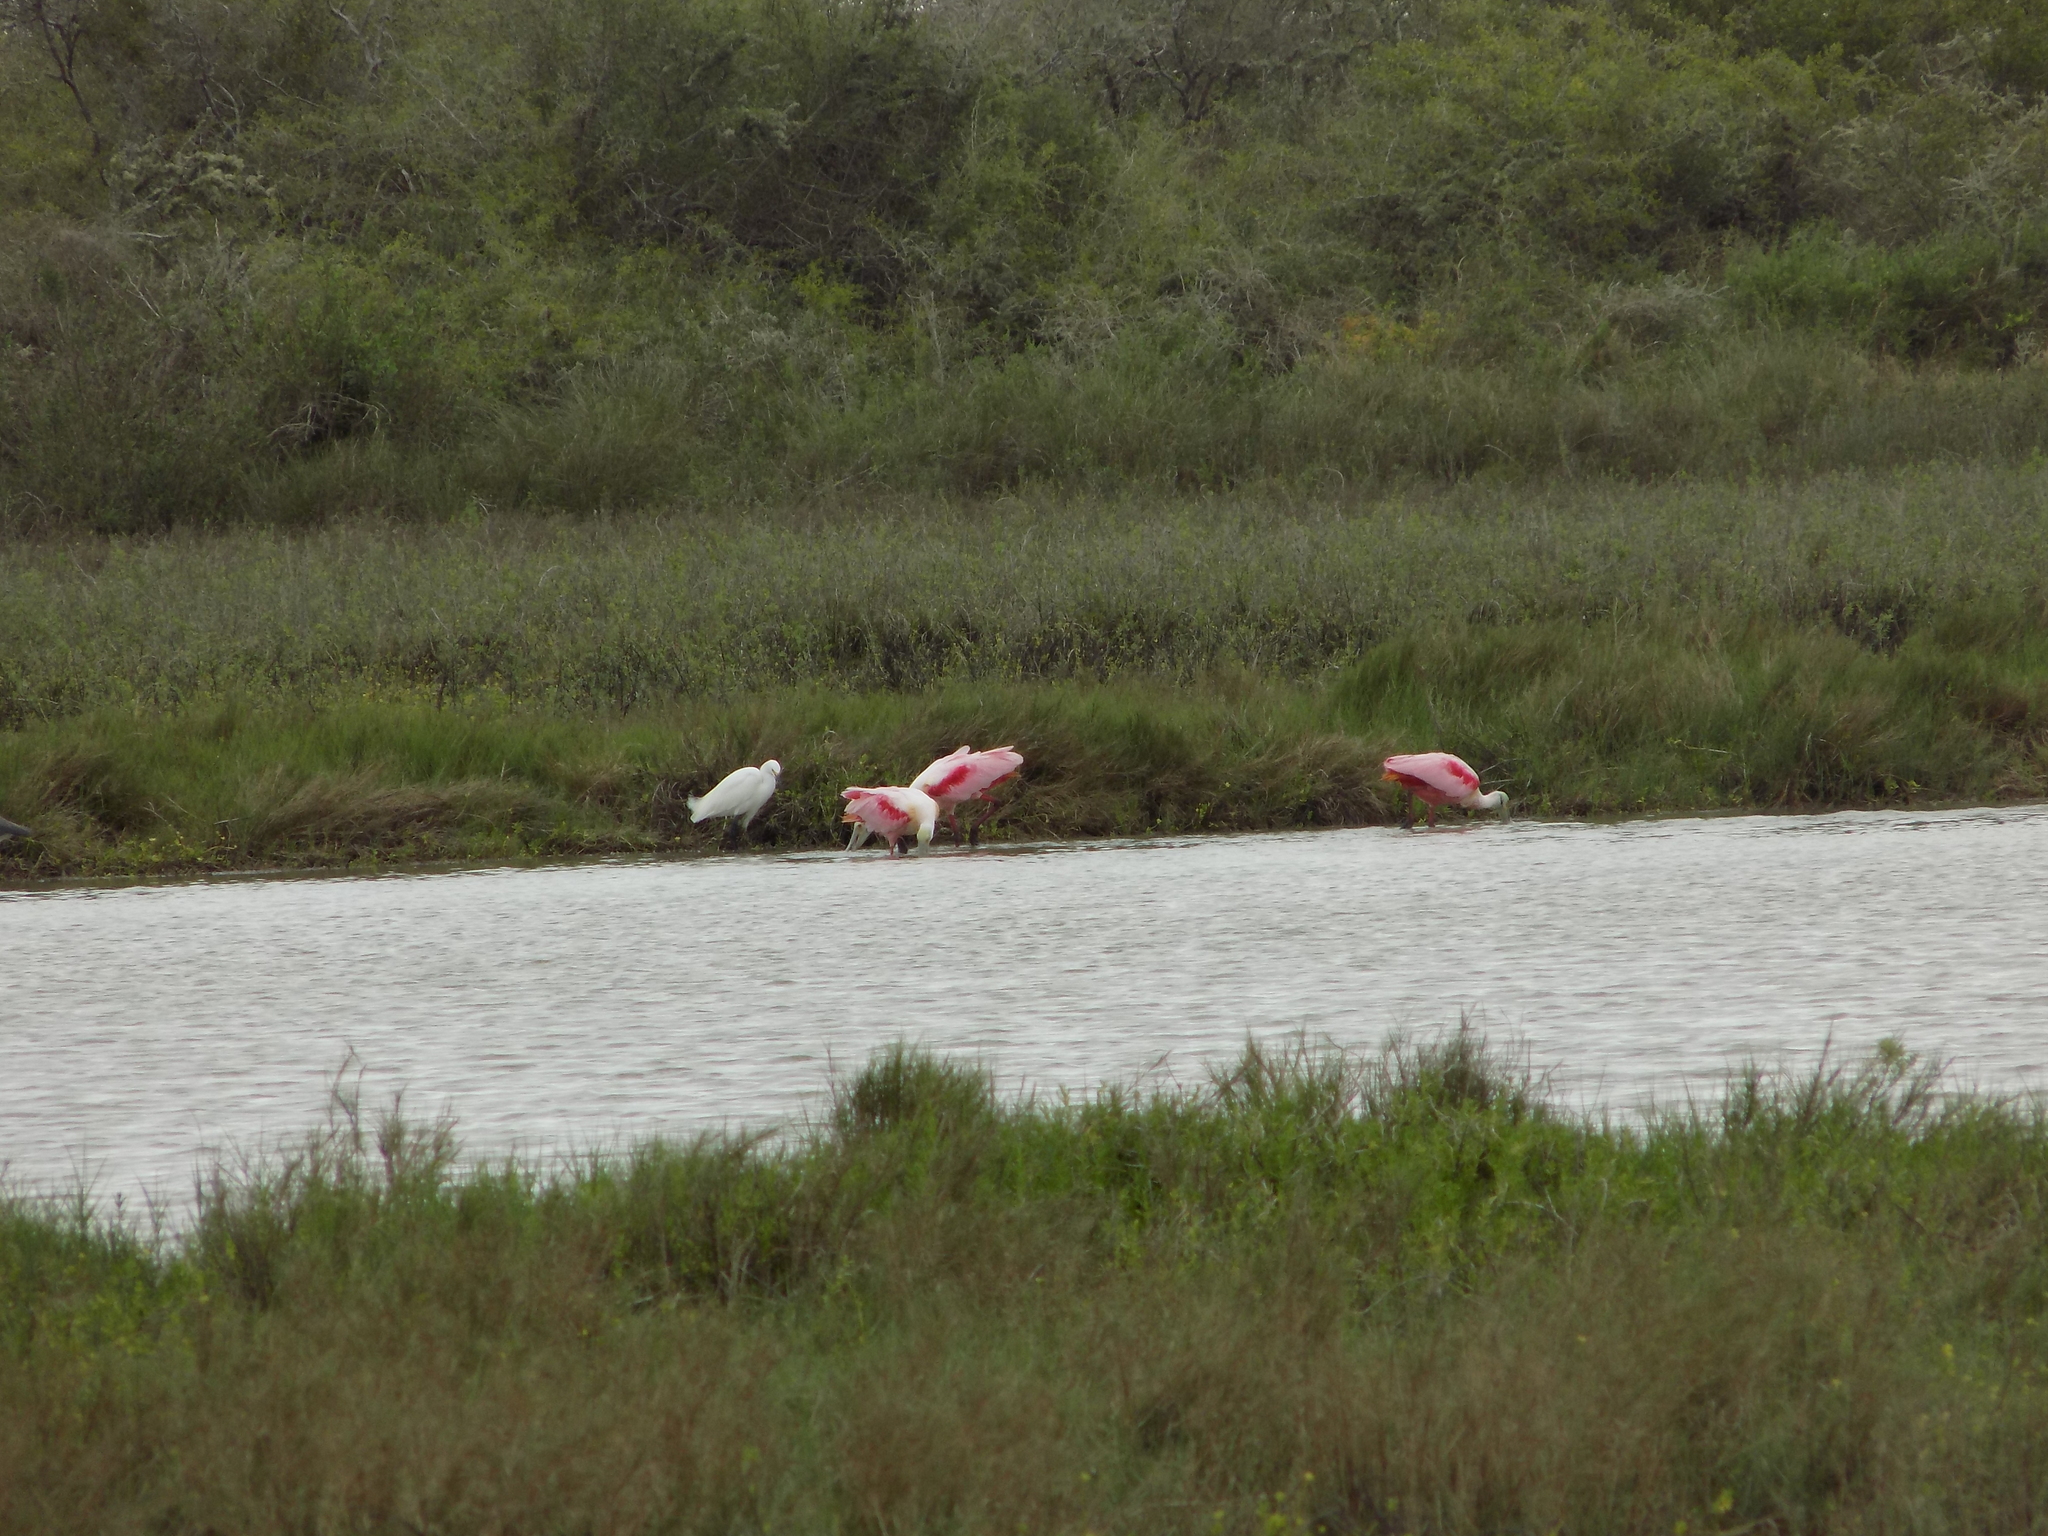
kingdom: Animalia
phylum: Chordata
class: Aves
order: Pelecaniformes
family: Threskiornithidae
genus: Platalea
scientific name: Platalea ajaja
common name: Roseate spoonbill
